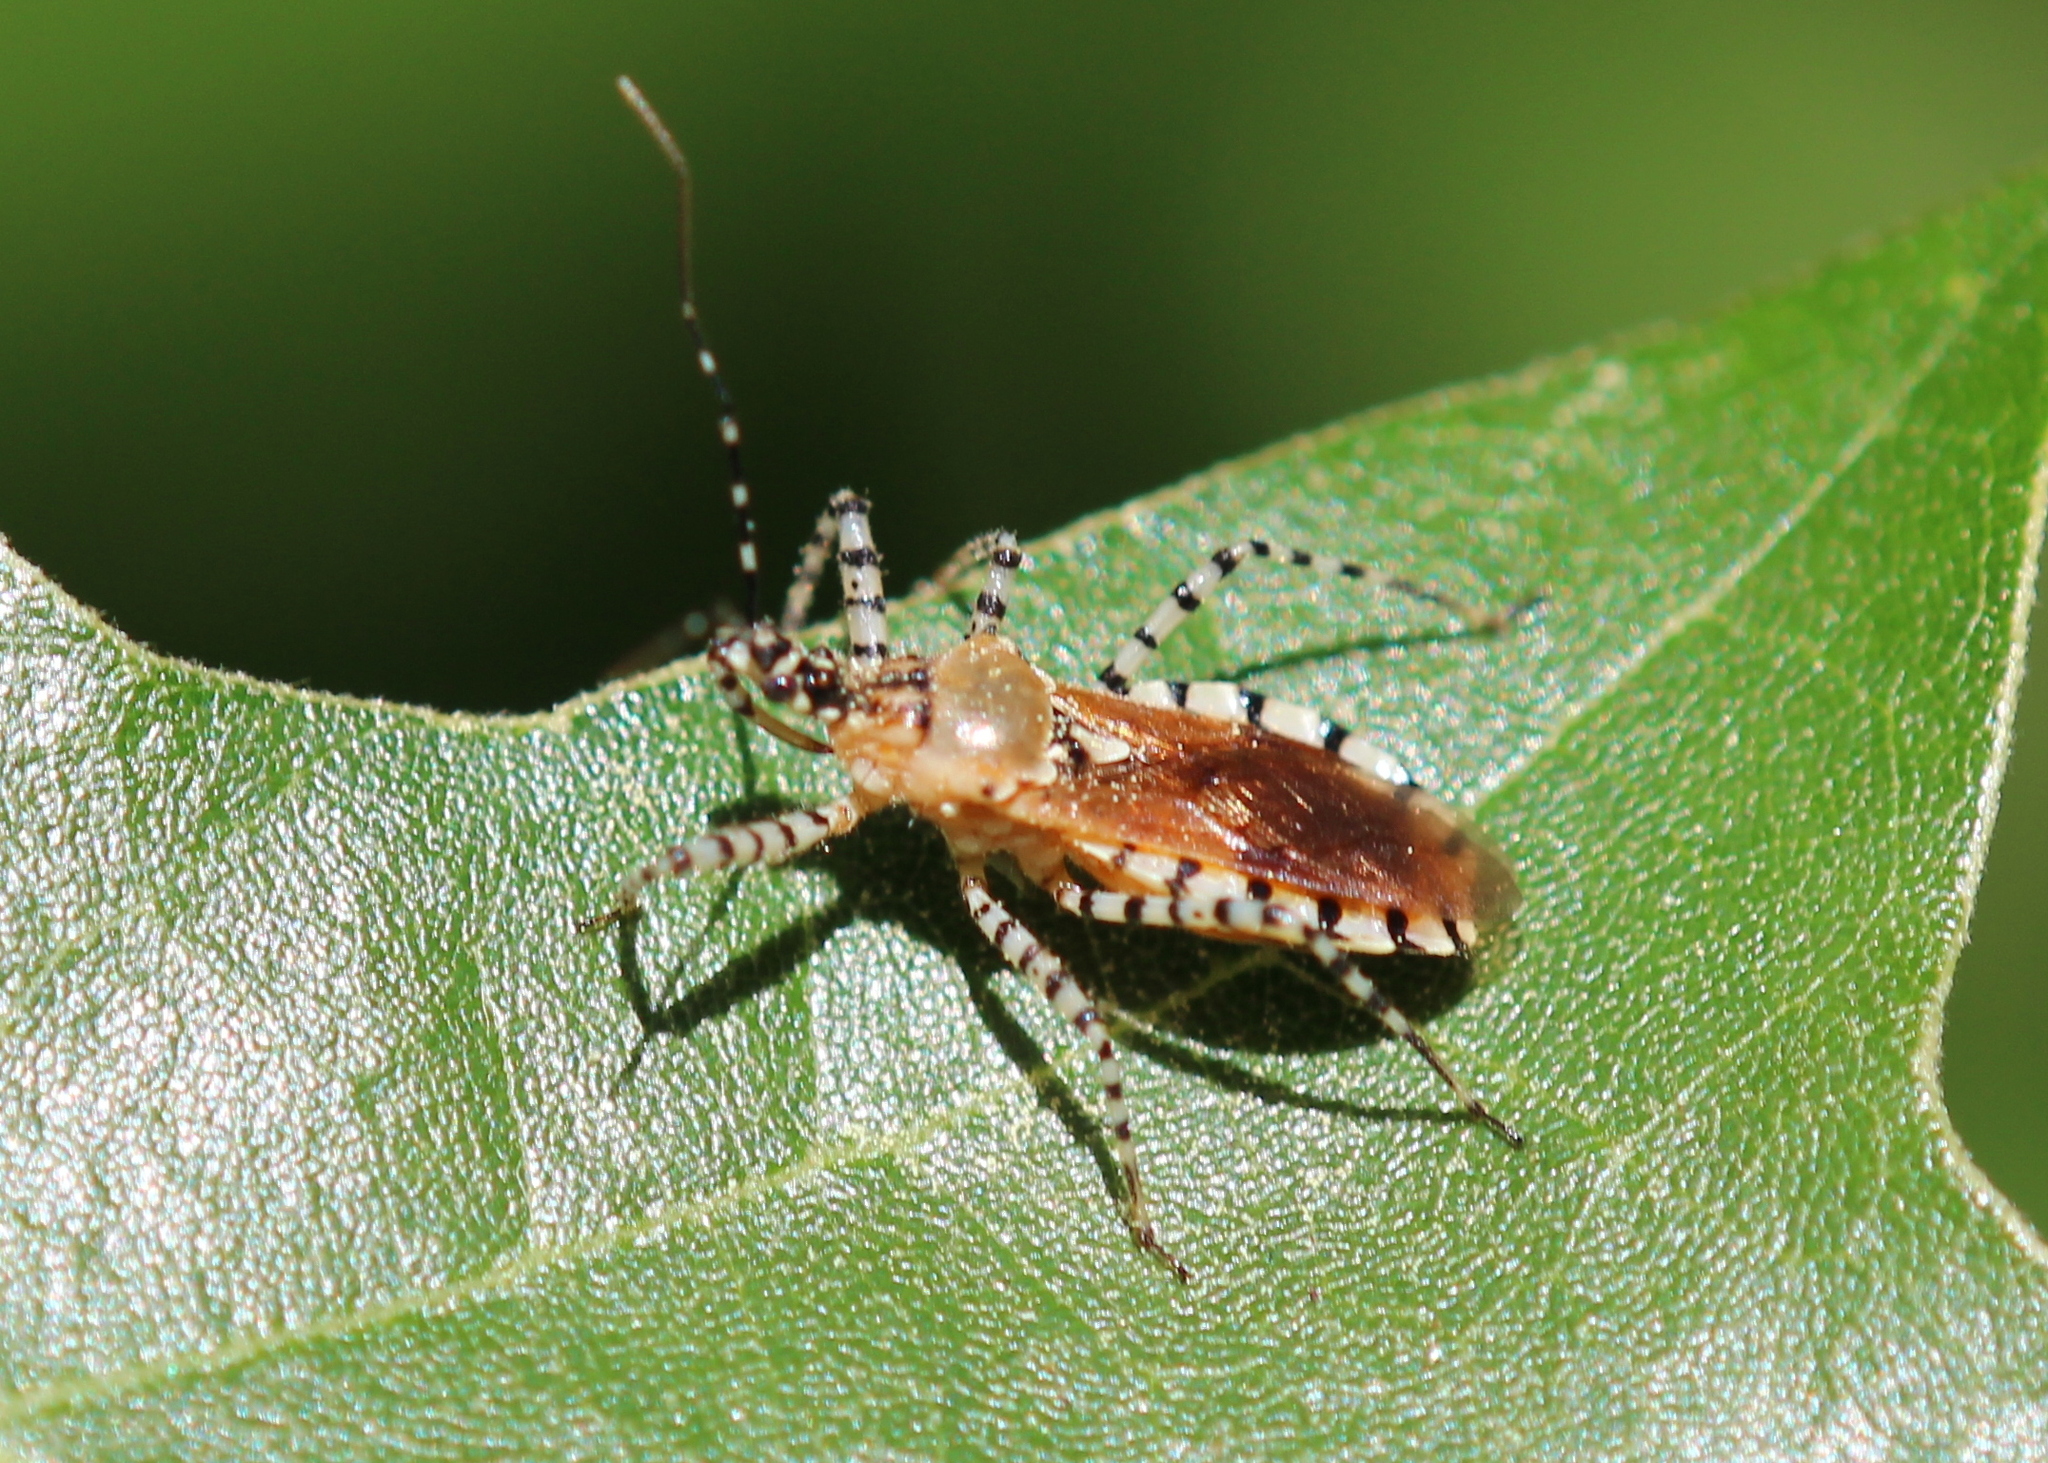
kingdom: Animalia
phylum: Arthropoda
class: Insecta
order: Hemiptera
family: Reduviidae
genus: Pselliopus
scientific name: Pselliopus cinctus
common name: Ringed assassin bug
